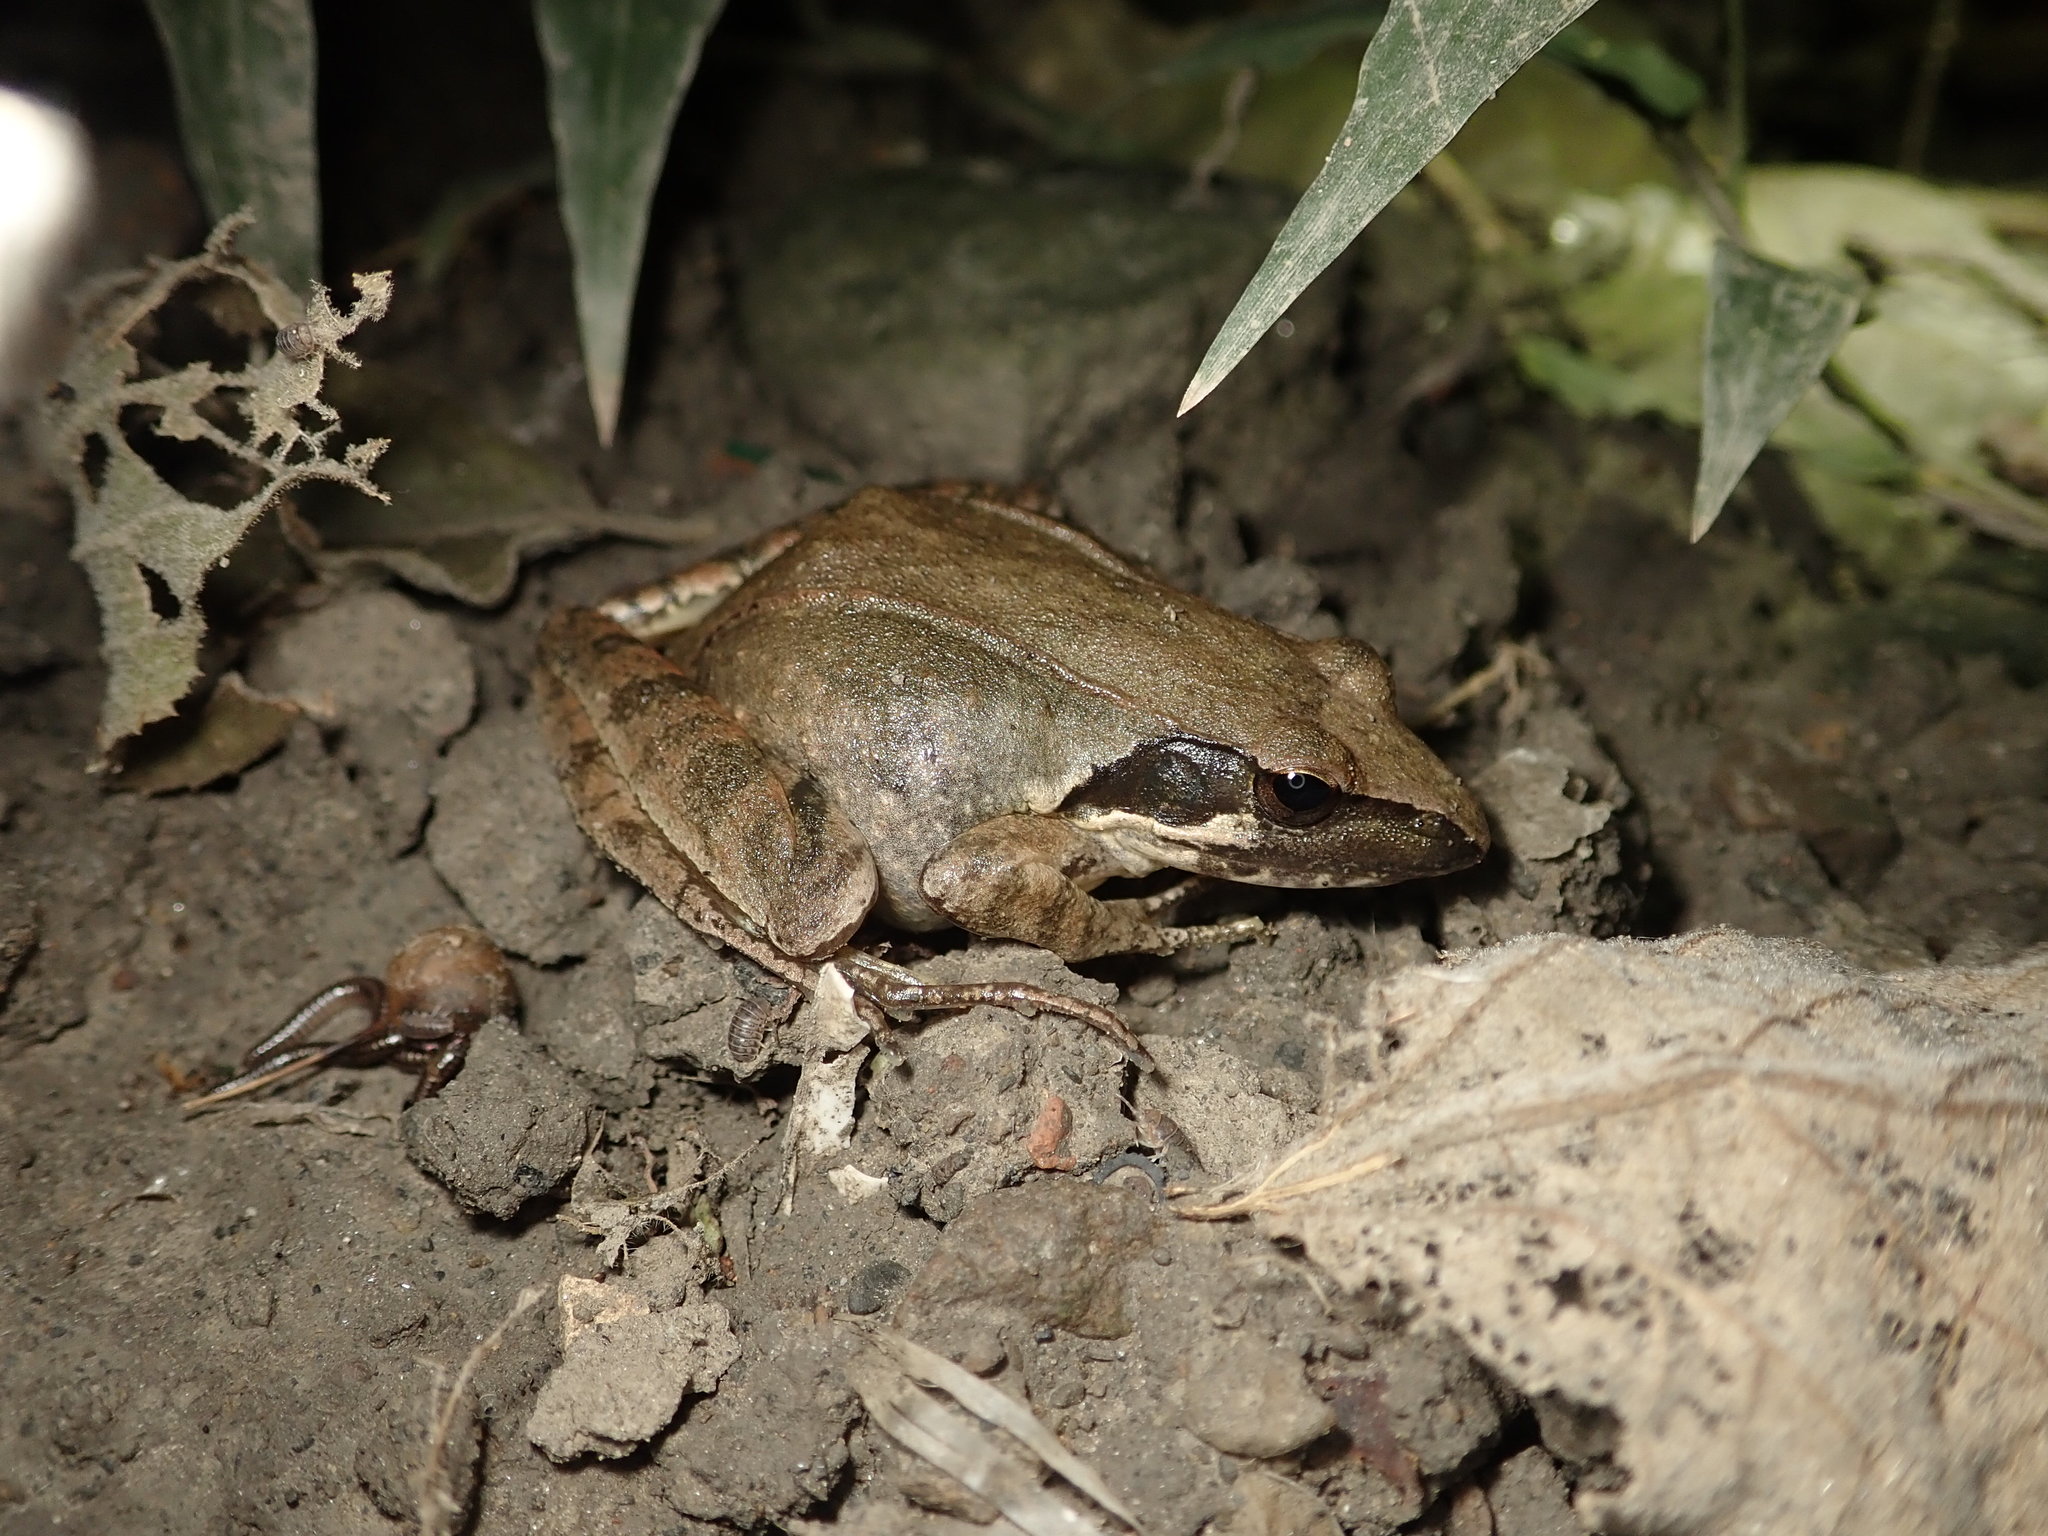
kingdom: Animalia
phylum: Chordata
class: Amphibia
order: Anura
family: Ranidae
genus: Rana
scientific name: Rana longicrus
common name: Long-legged brown frog
